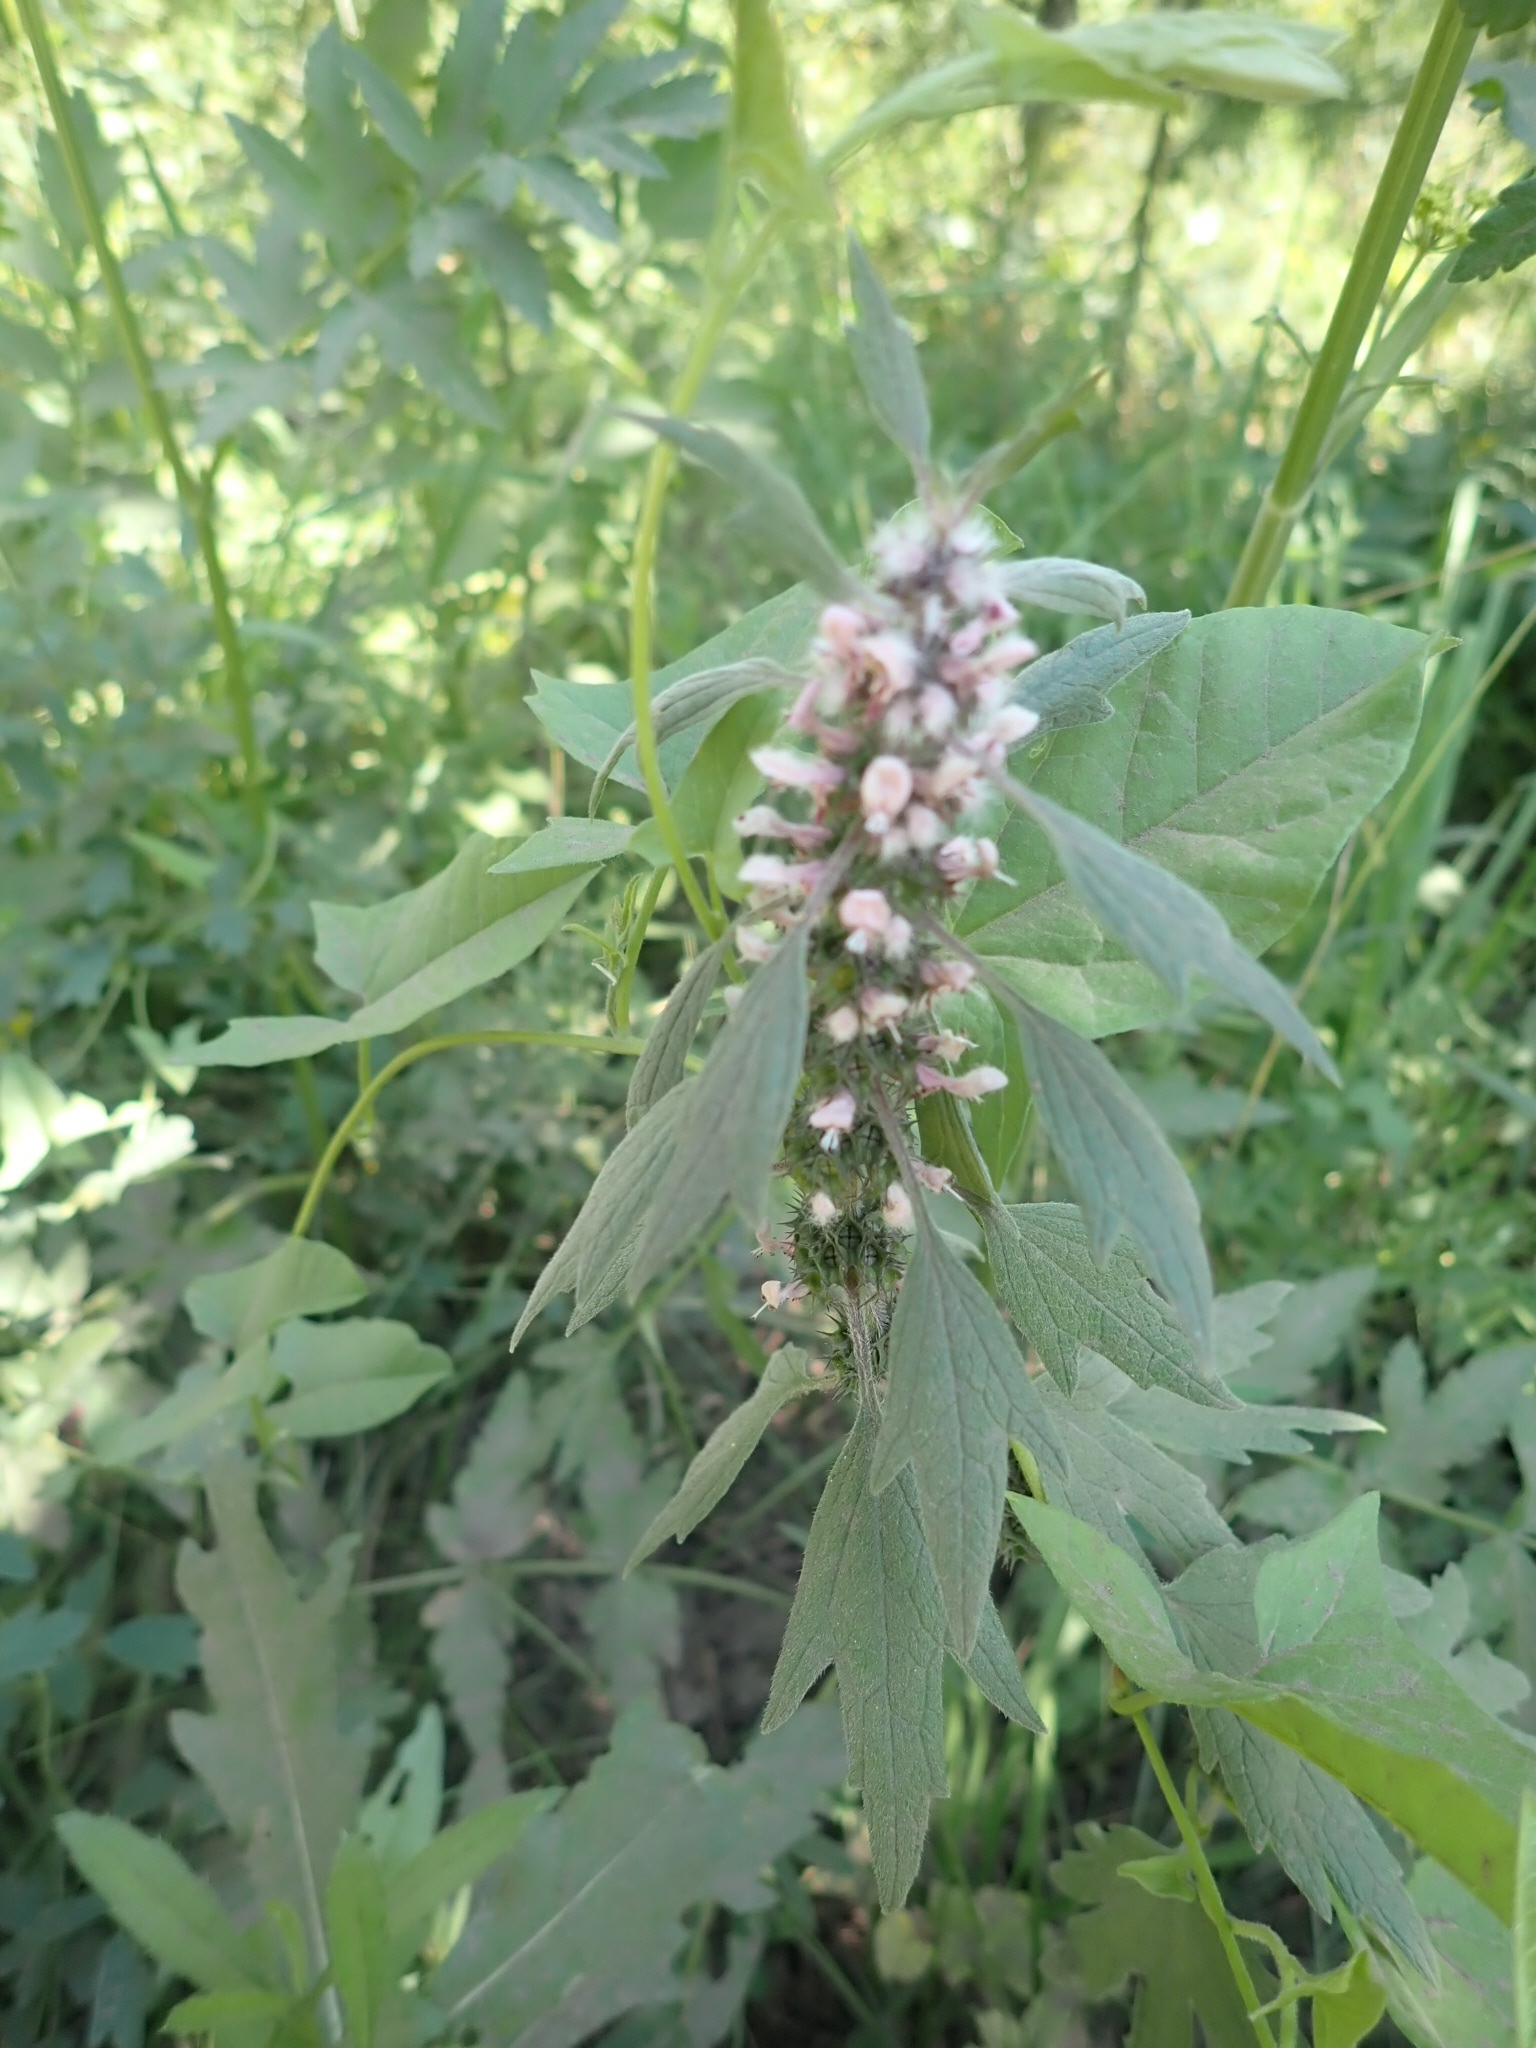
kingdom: Plantae
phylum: Tracheophyta
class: Magnoliopsida
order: Lamiales
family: Lamiaceae
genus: Leonurus
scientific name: Leonurus quinquelobatus
